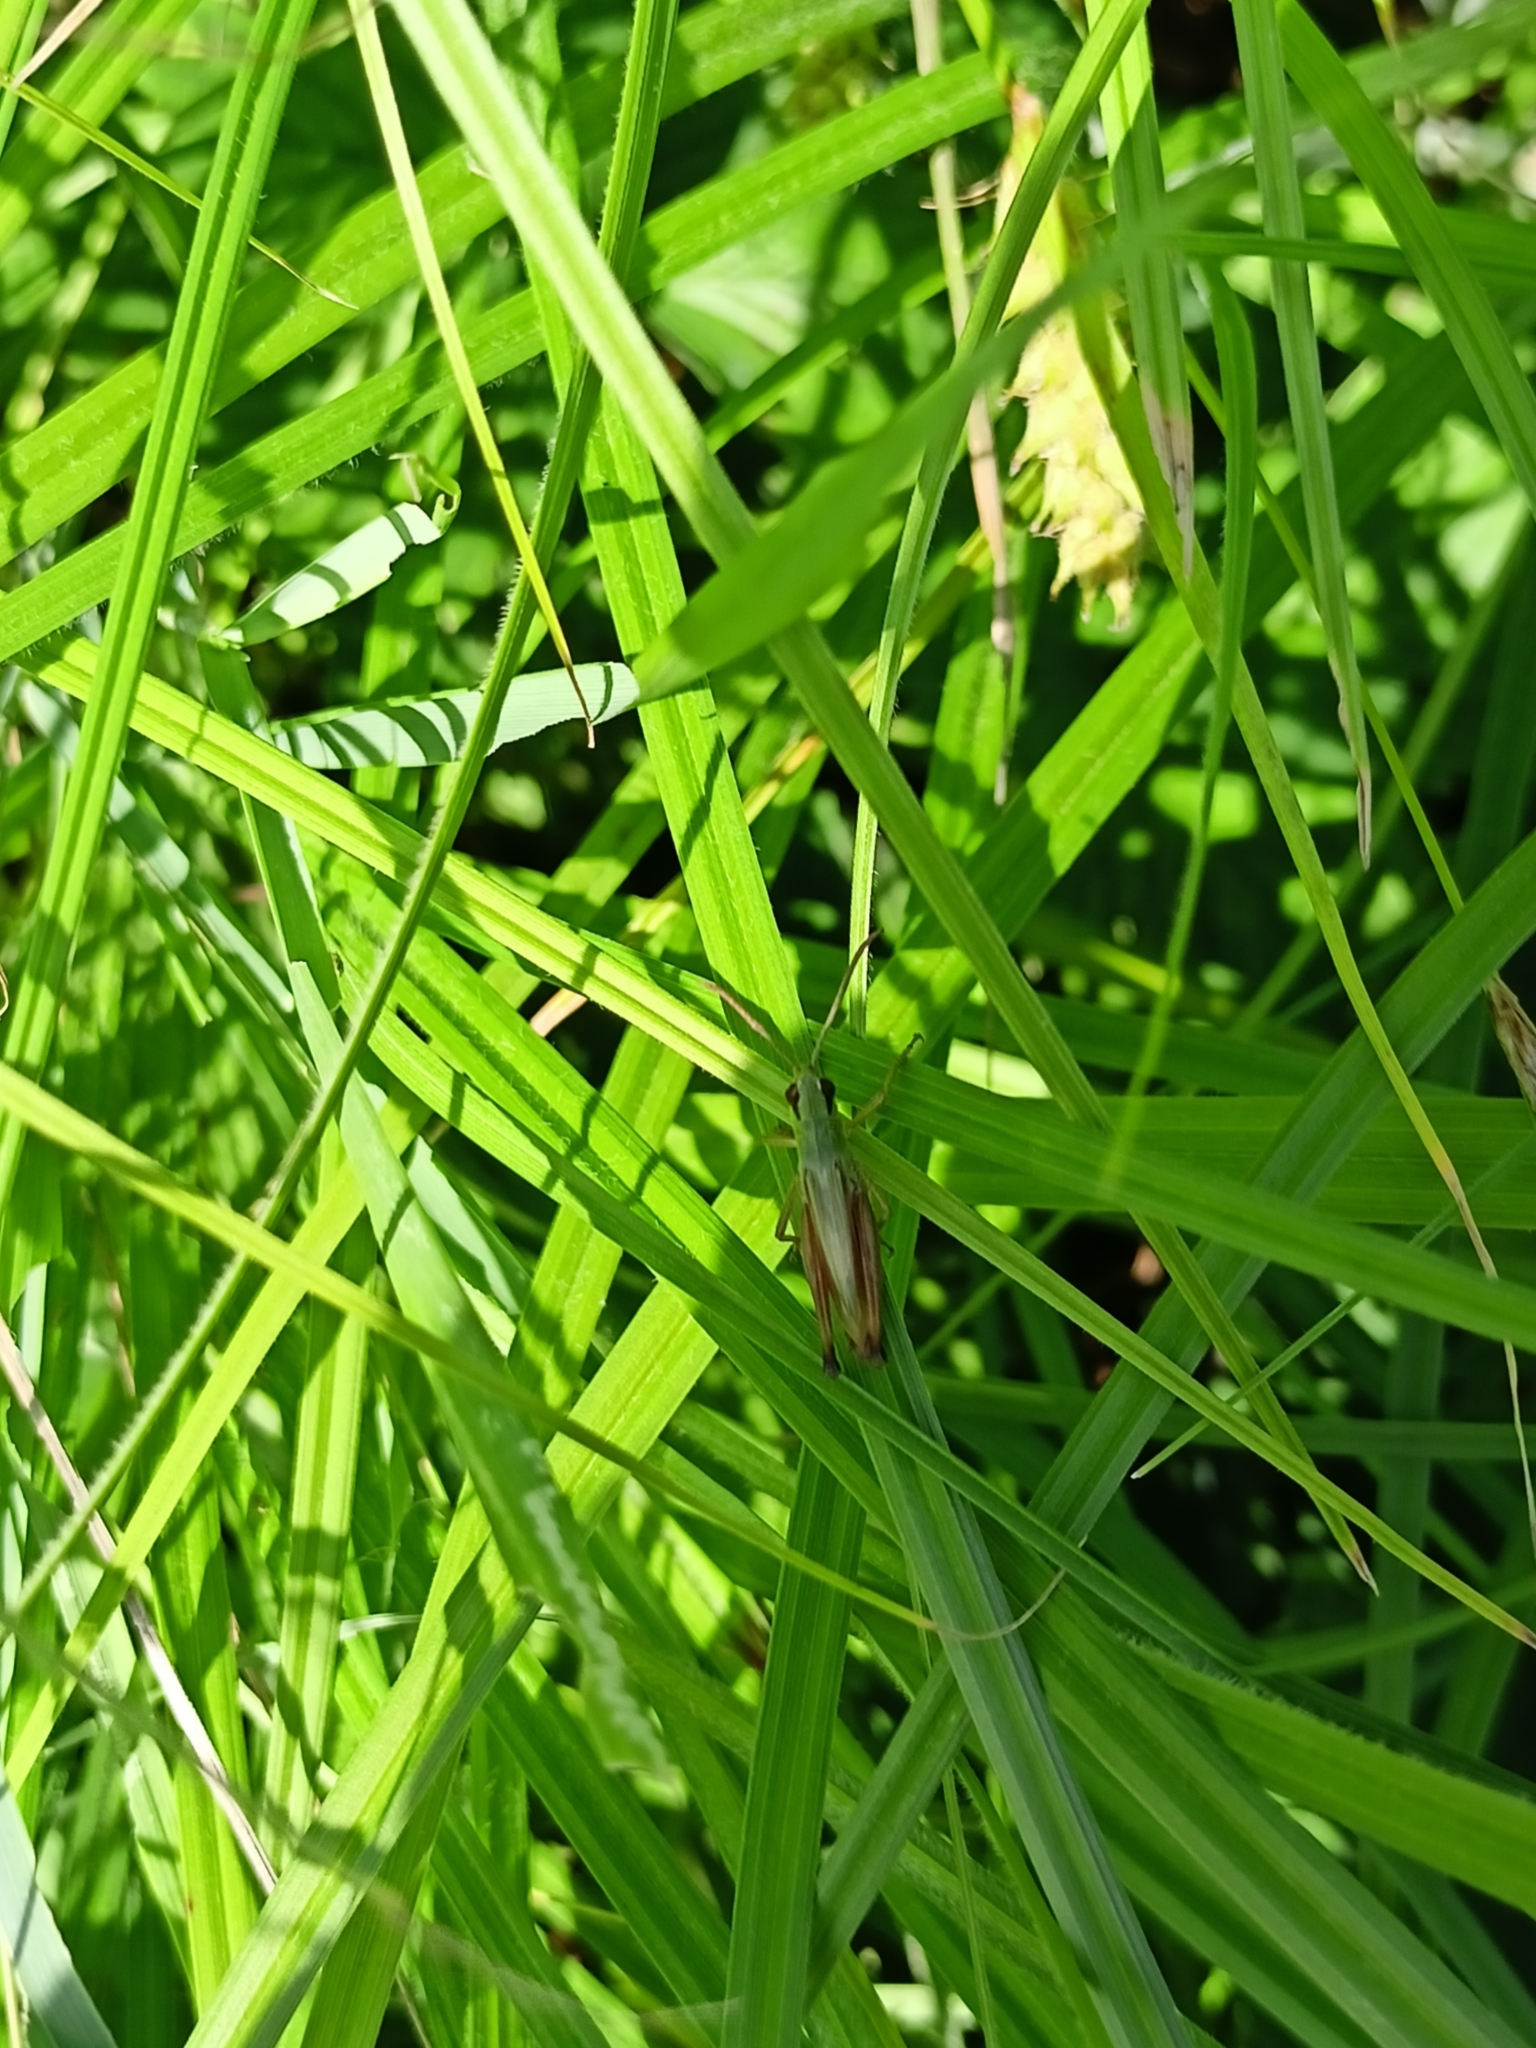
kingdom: Animalia
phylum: Arthropoda
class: Insecta
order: Orthoptera
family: Acrididae
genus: Pseudochorthippus
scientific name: Pseudochorthippus parallelus
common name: Meadow grasshopper
